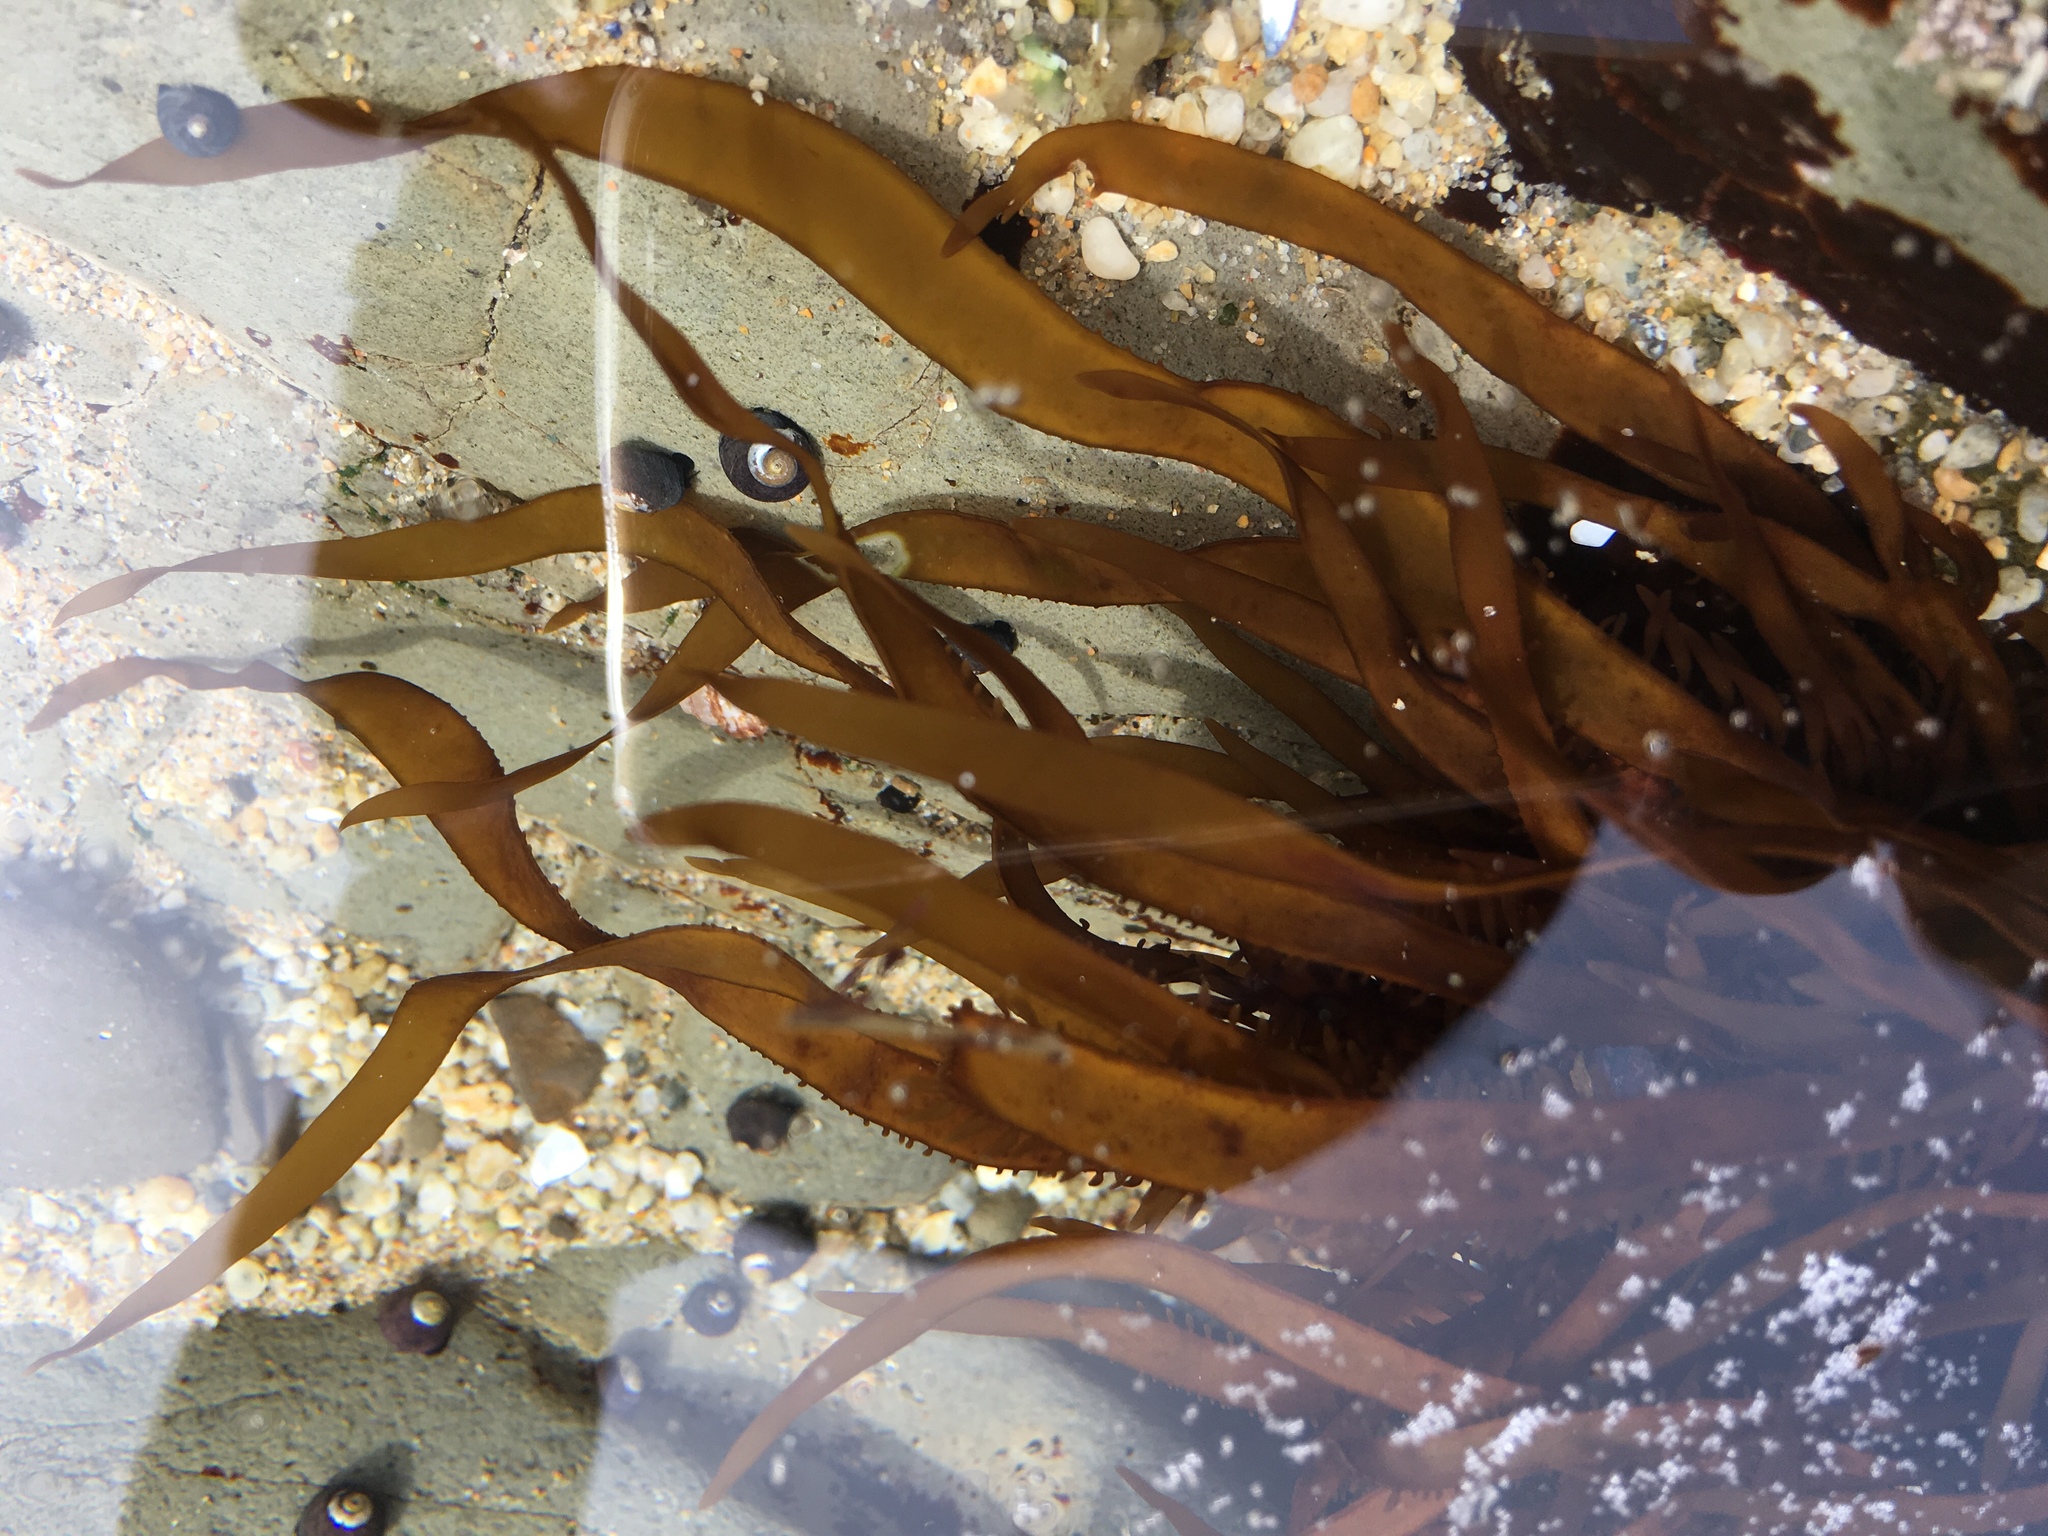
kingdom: Plantae
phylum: Rhodophyta
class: Florideophyceae
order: Halymeniales
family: Halymeniaceae
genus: Grateloupia
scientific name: Grateloupia Prionitis sternbergii
